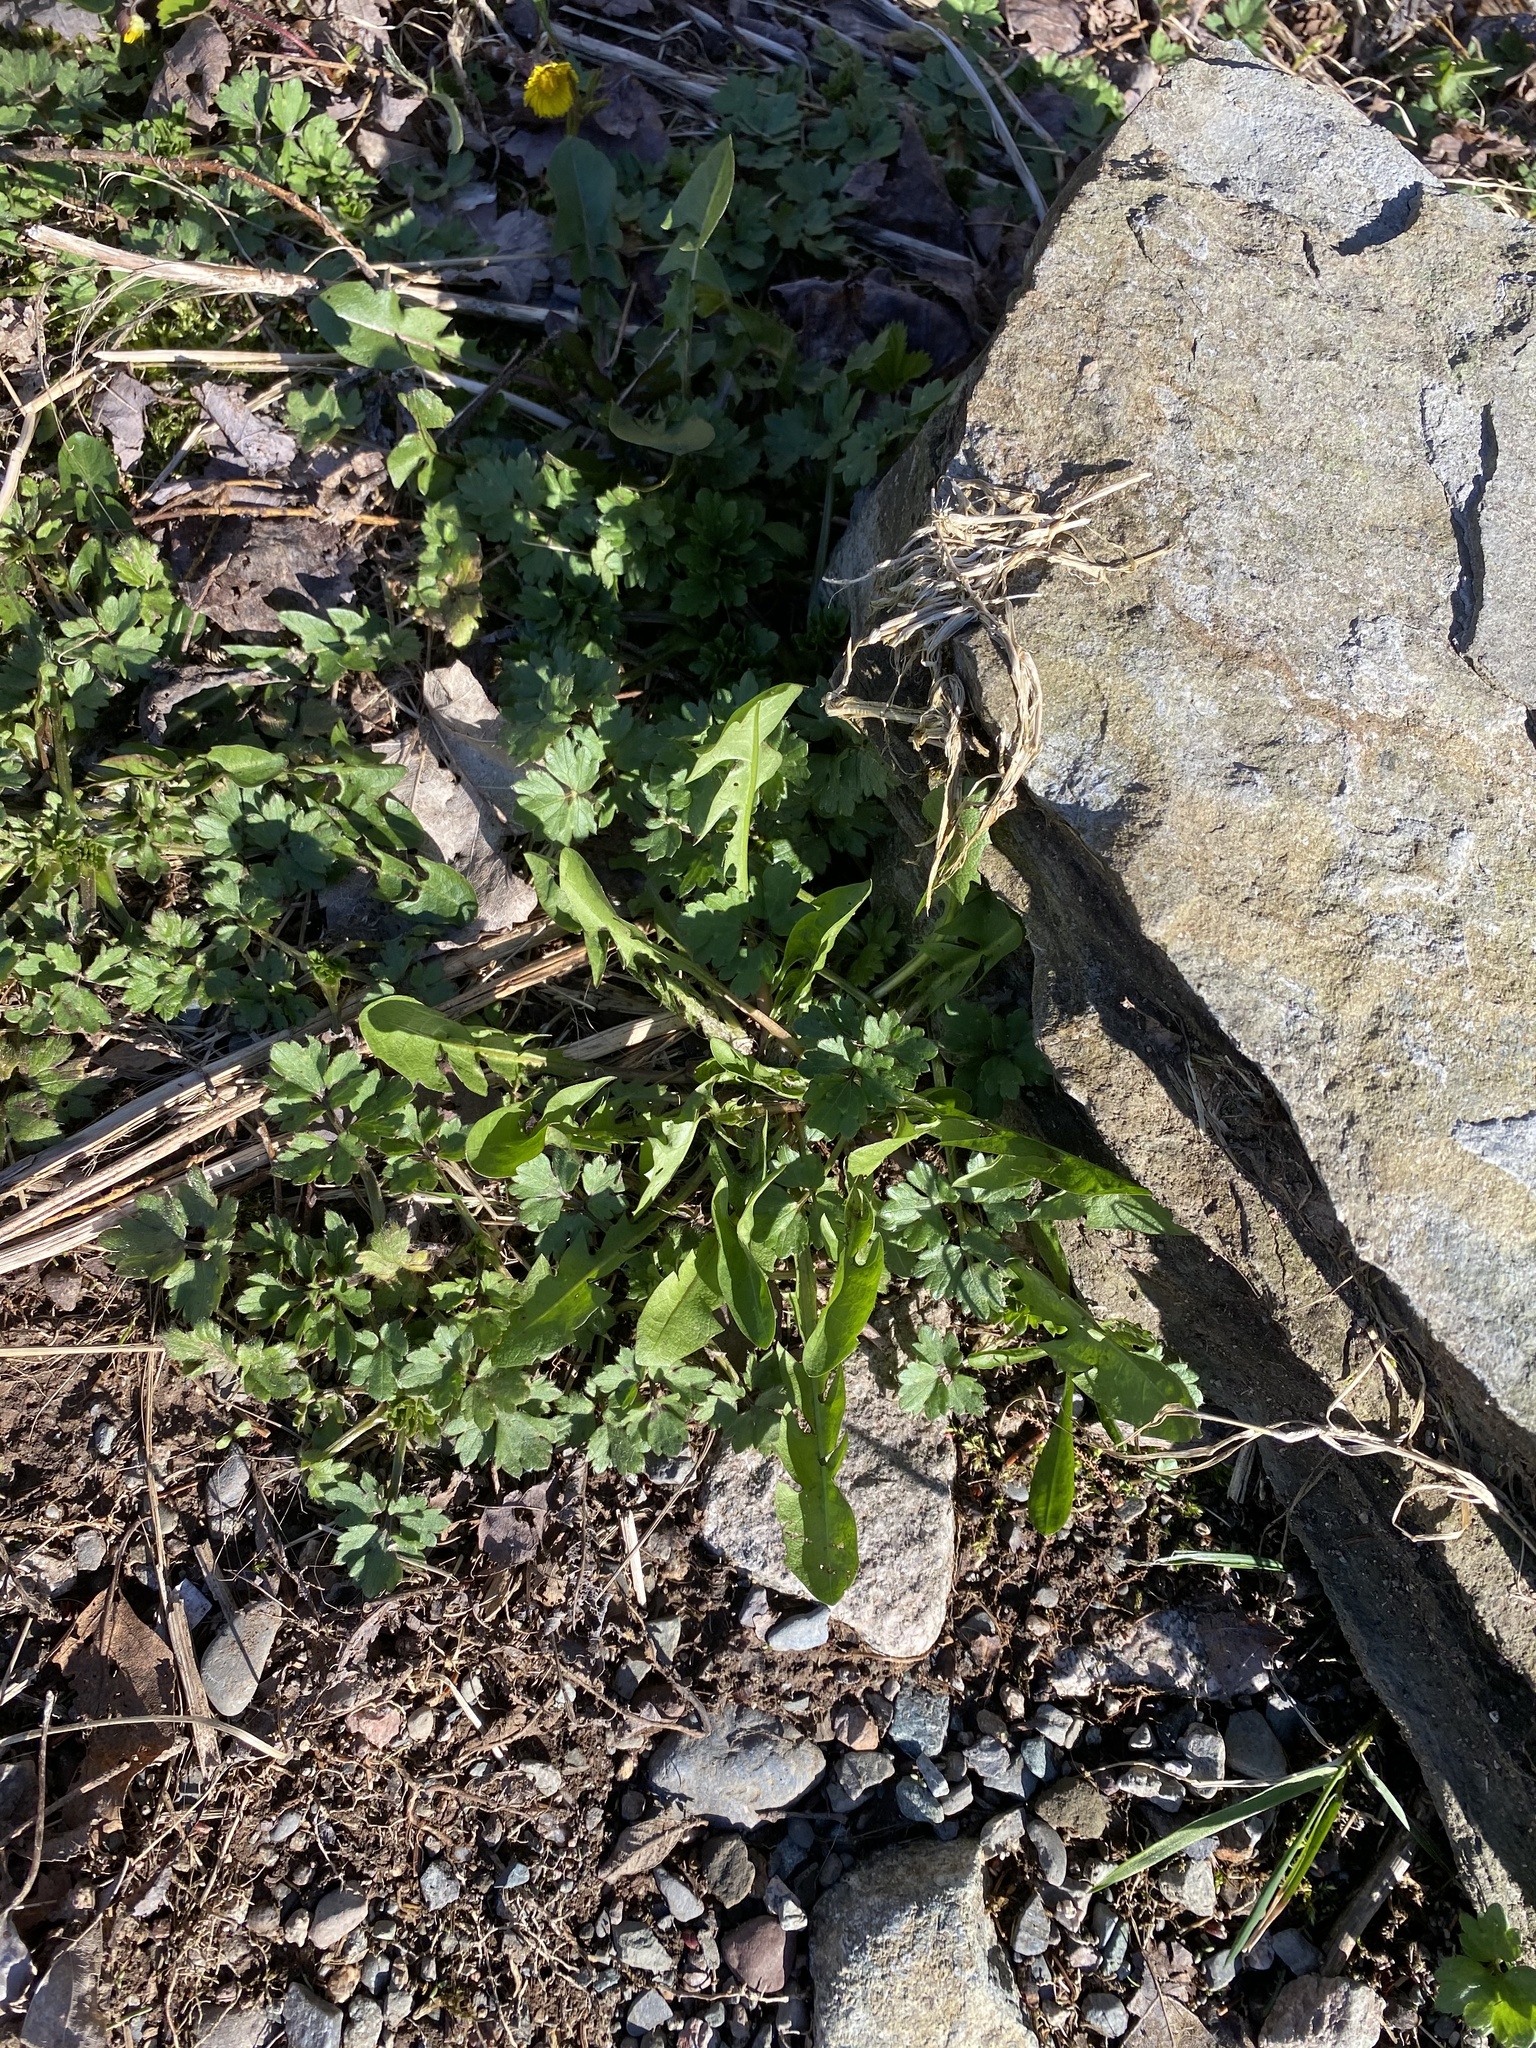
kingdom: Plantae
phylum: Tracheophyta
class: Magnoliopsida
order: Asterales
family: Asteraceae
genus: Taraxacum
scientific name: Taraxacum officinale
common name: Common dandelion
